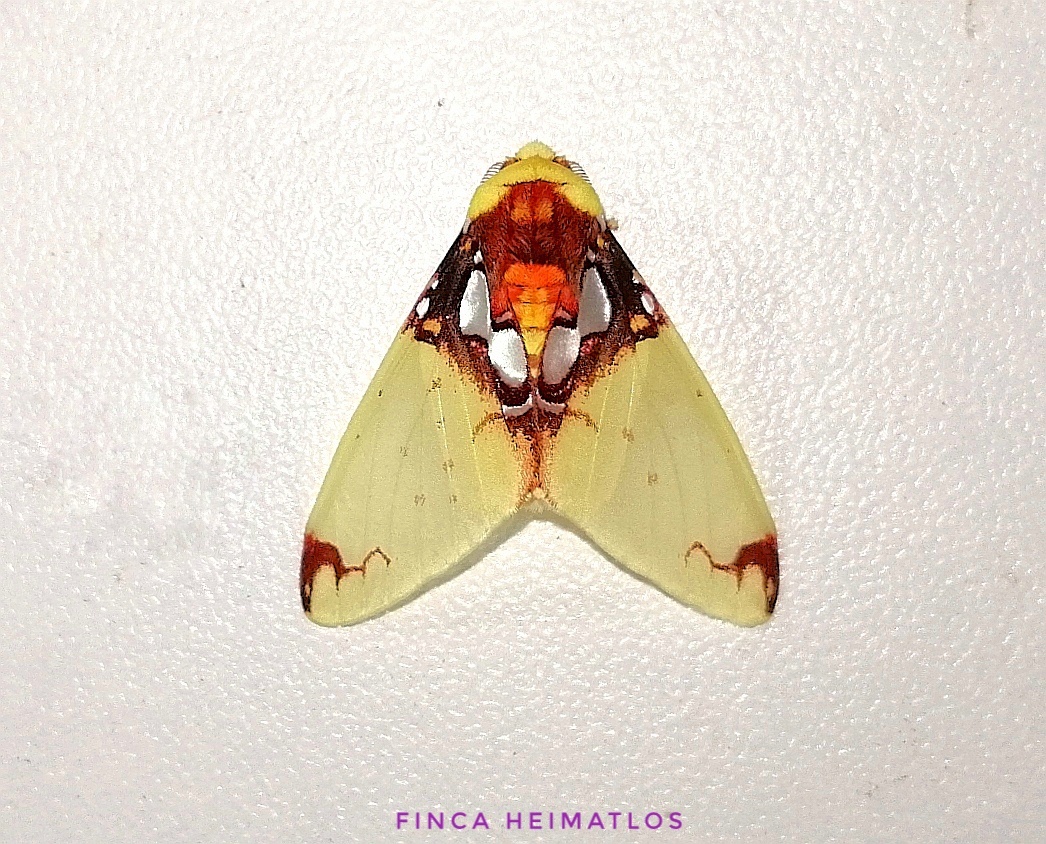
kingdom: Animalia
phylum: Arthropoda
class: Insecta
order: Lepidoptera
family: Erebidae
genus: Amaxia
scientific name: Amaxia chaon
